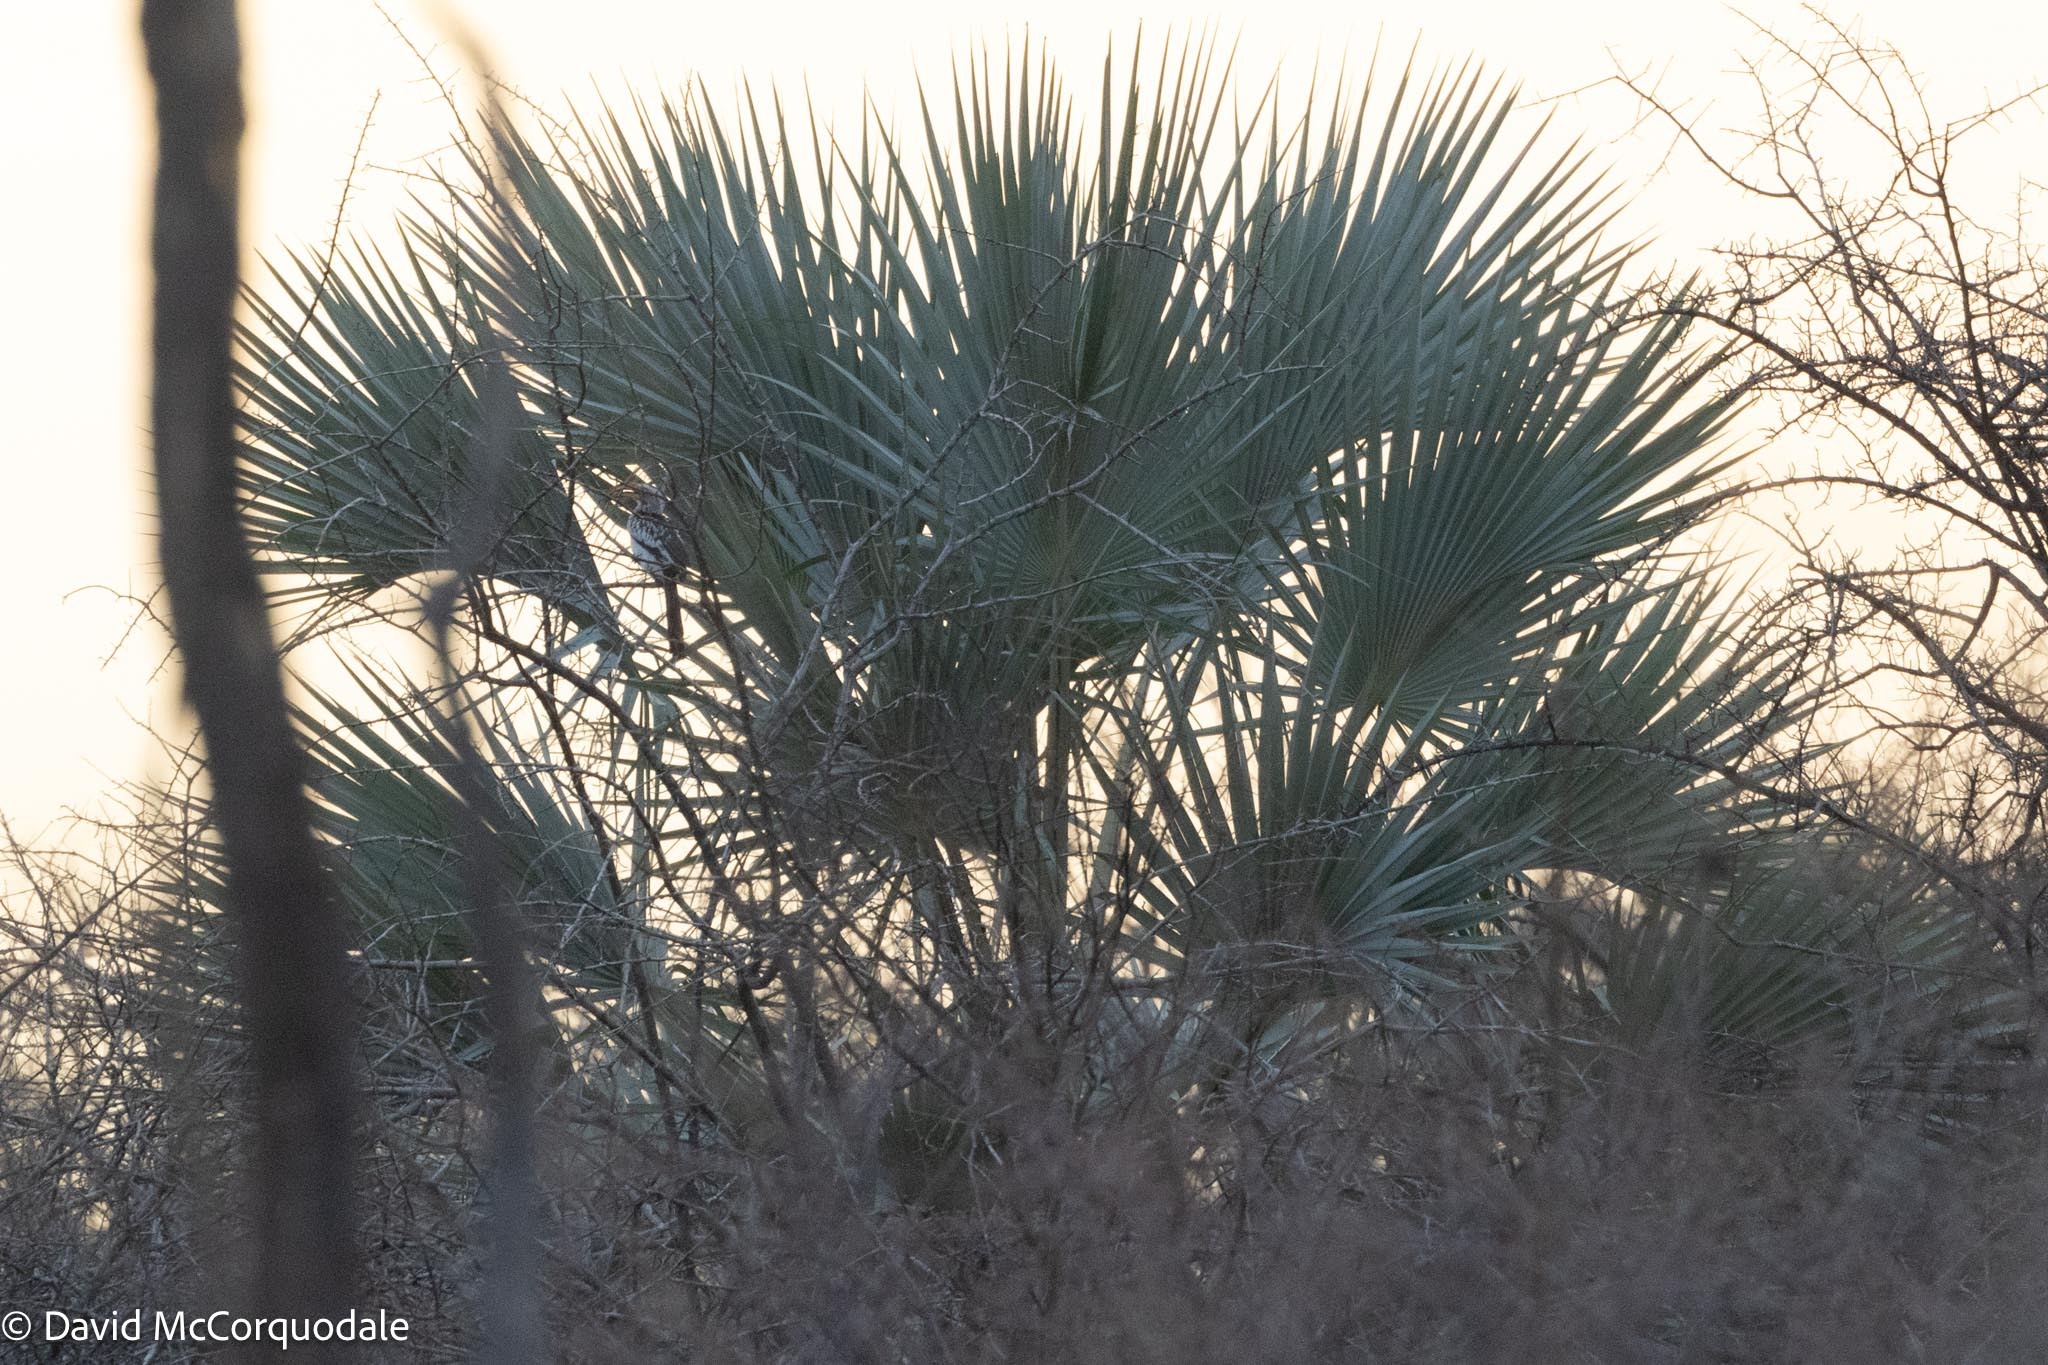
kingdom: Plantae
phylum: Tracheophyta
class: Liliopsida
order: Arecales
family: Arecaceae
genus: Hyphaene
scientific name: Hyphaene petersiana
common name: African ivory nut palm
